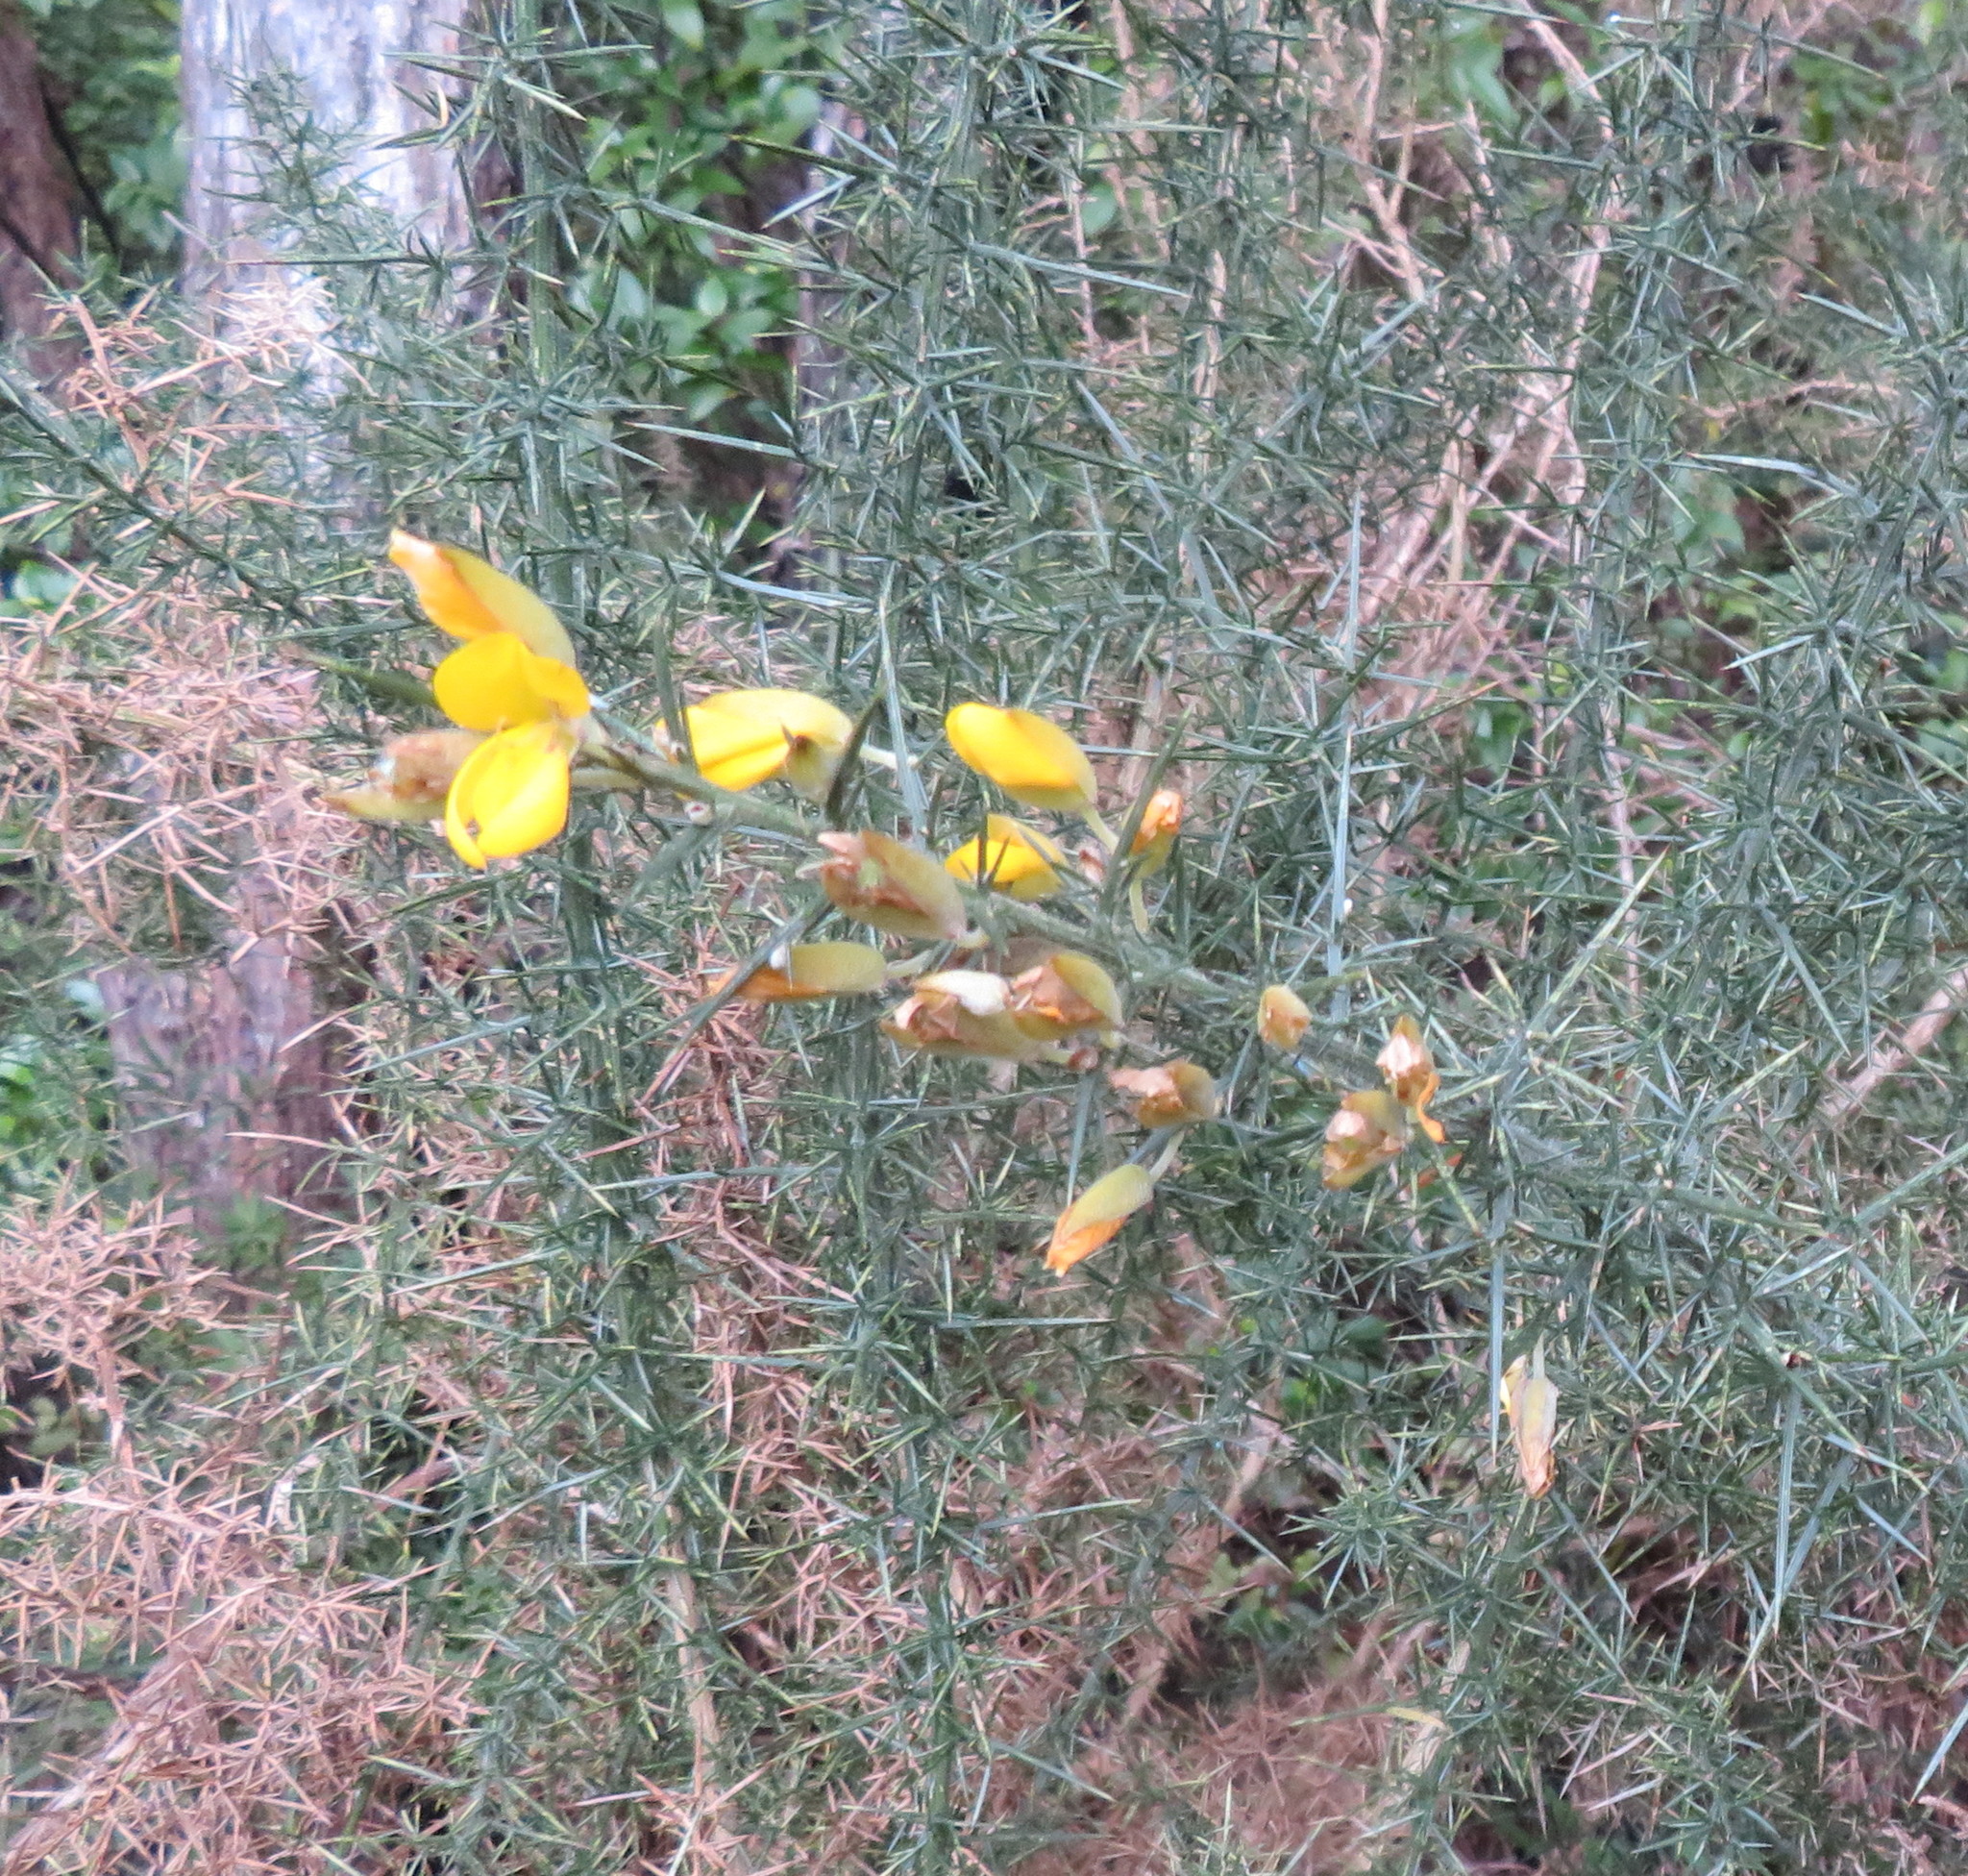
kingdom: Plantae
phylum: Tracheophyta
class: Magnoliopsida
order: Fabales
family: Fabaceae
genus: Ulex
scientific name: Ulex europaeus
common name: Common gorse
